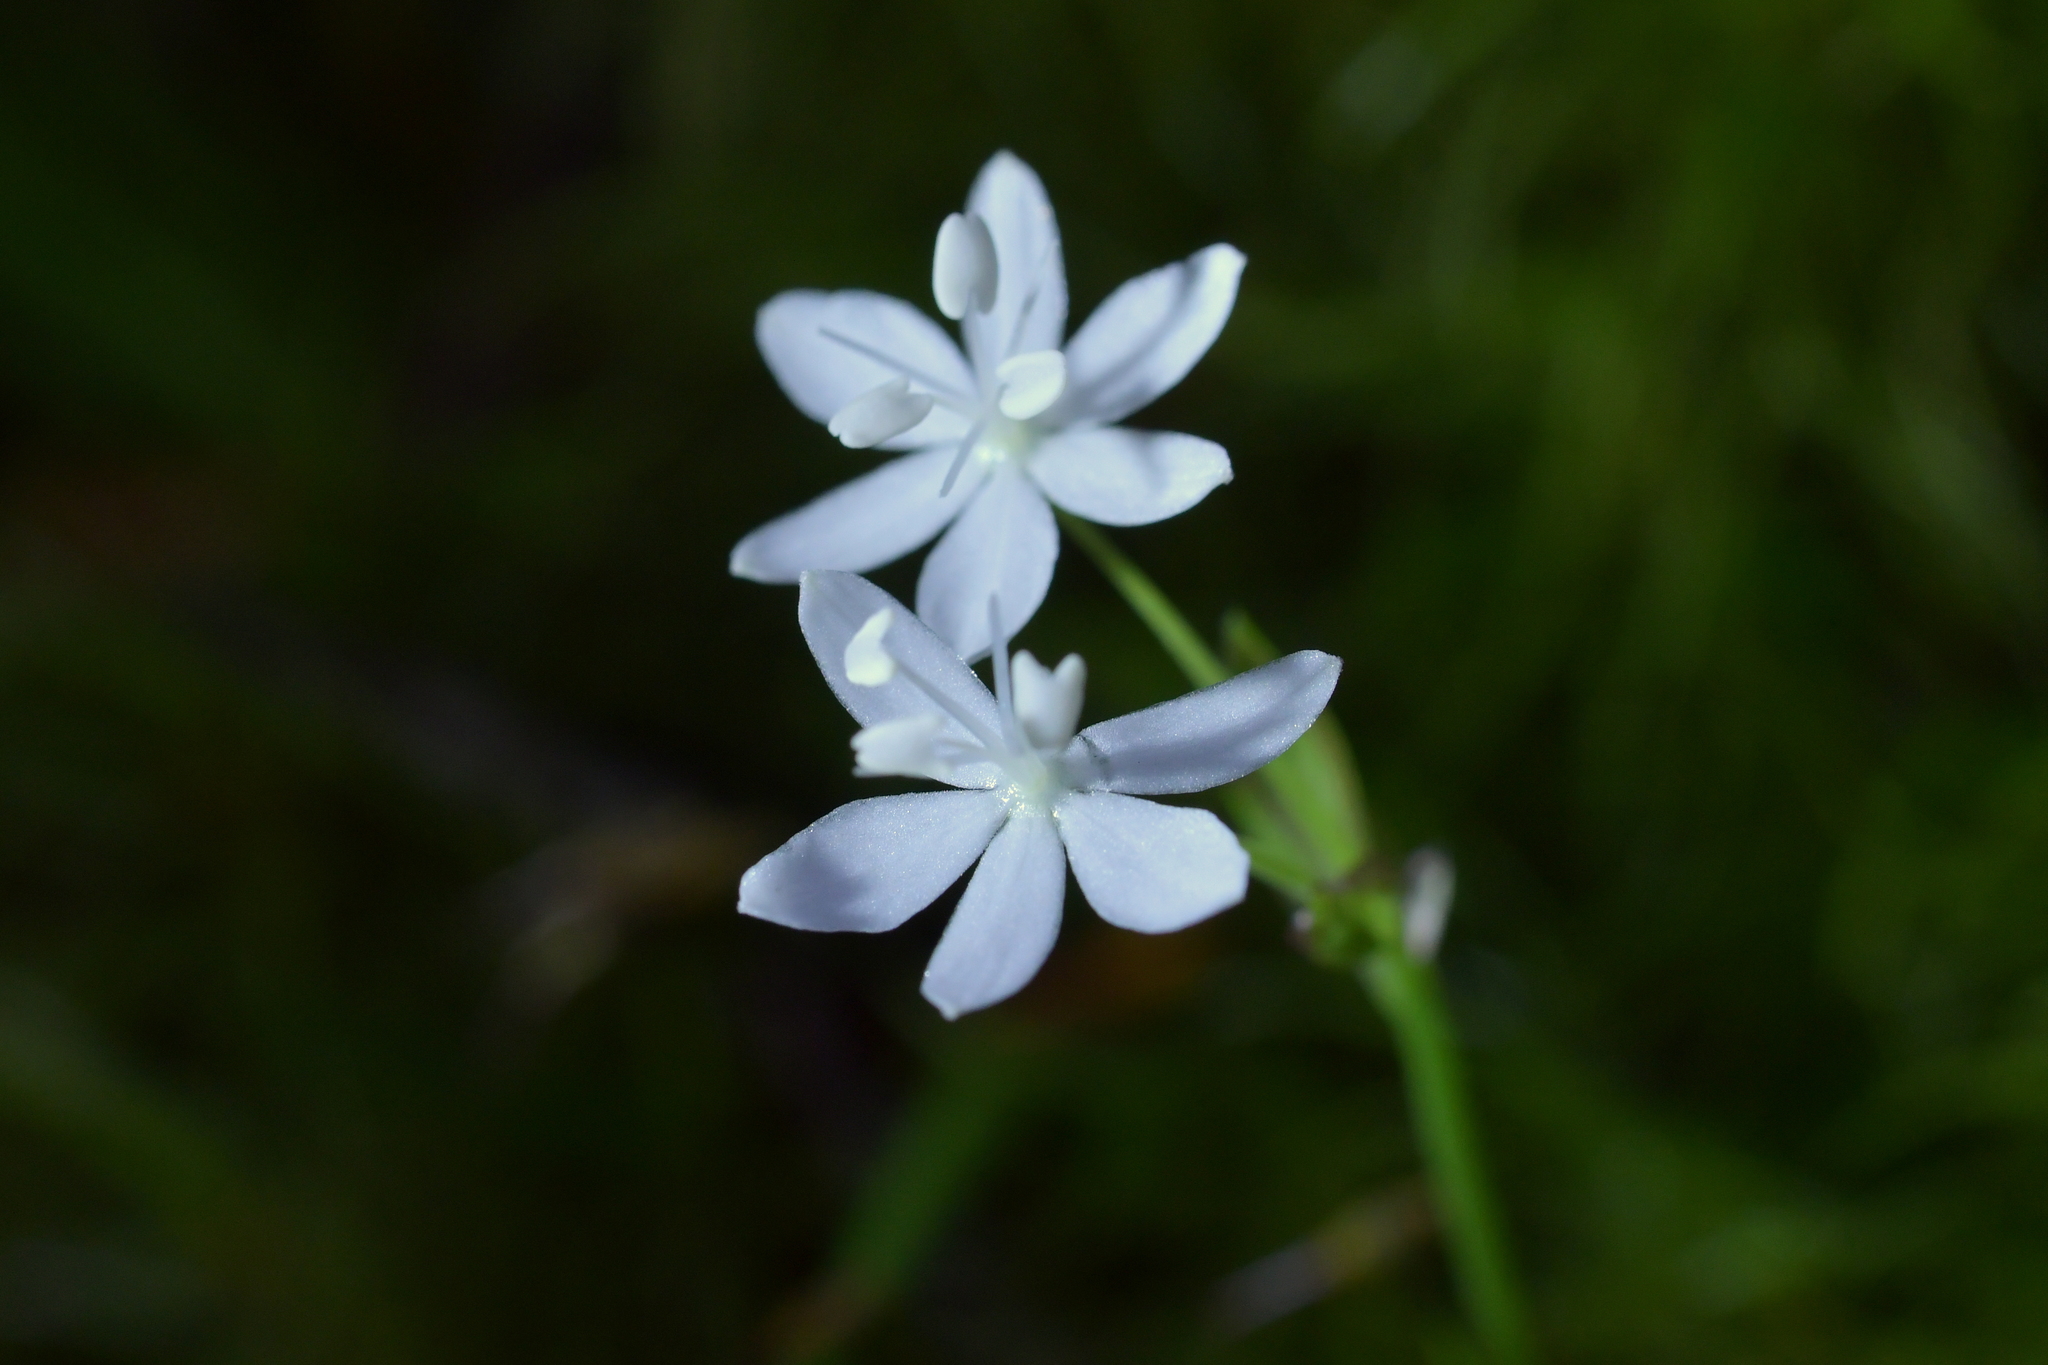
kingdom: Plantae
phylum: Tracheophyta
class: Liliopsida
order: Asparagales
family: Iridaceae
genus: Libertia
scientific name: Libertia micrantha
